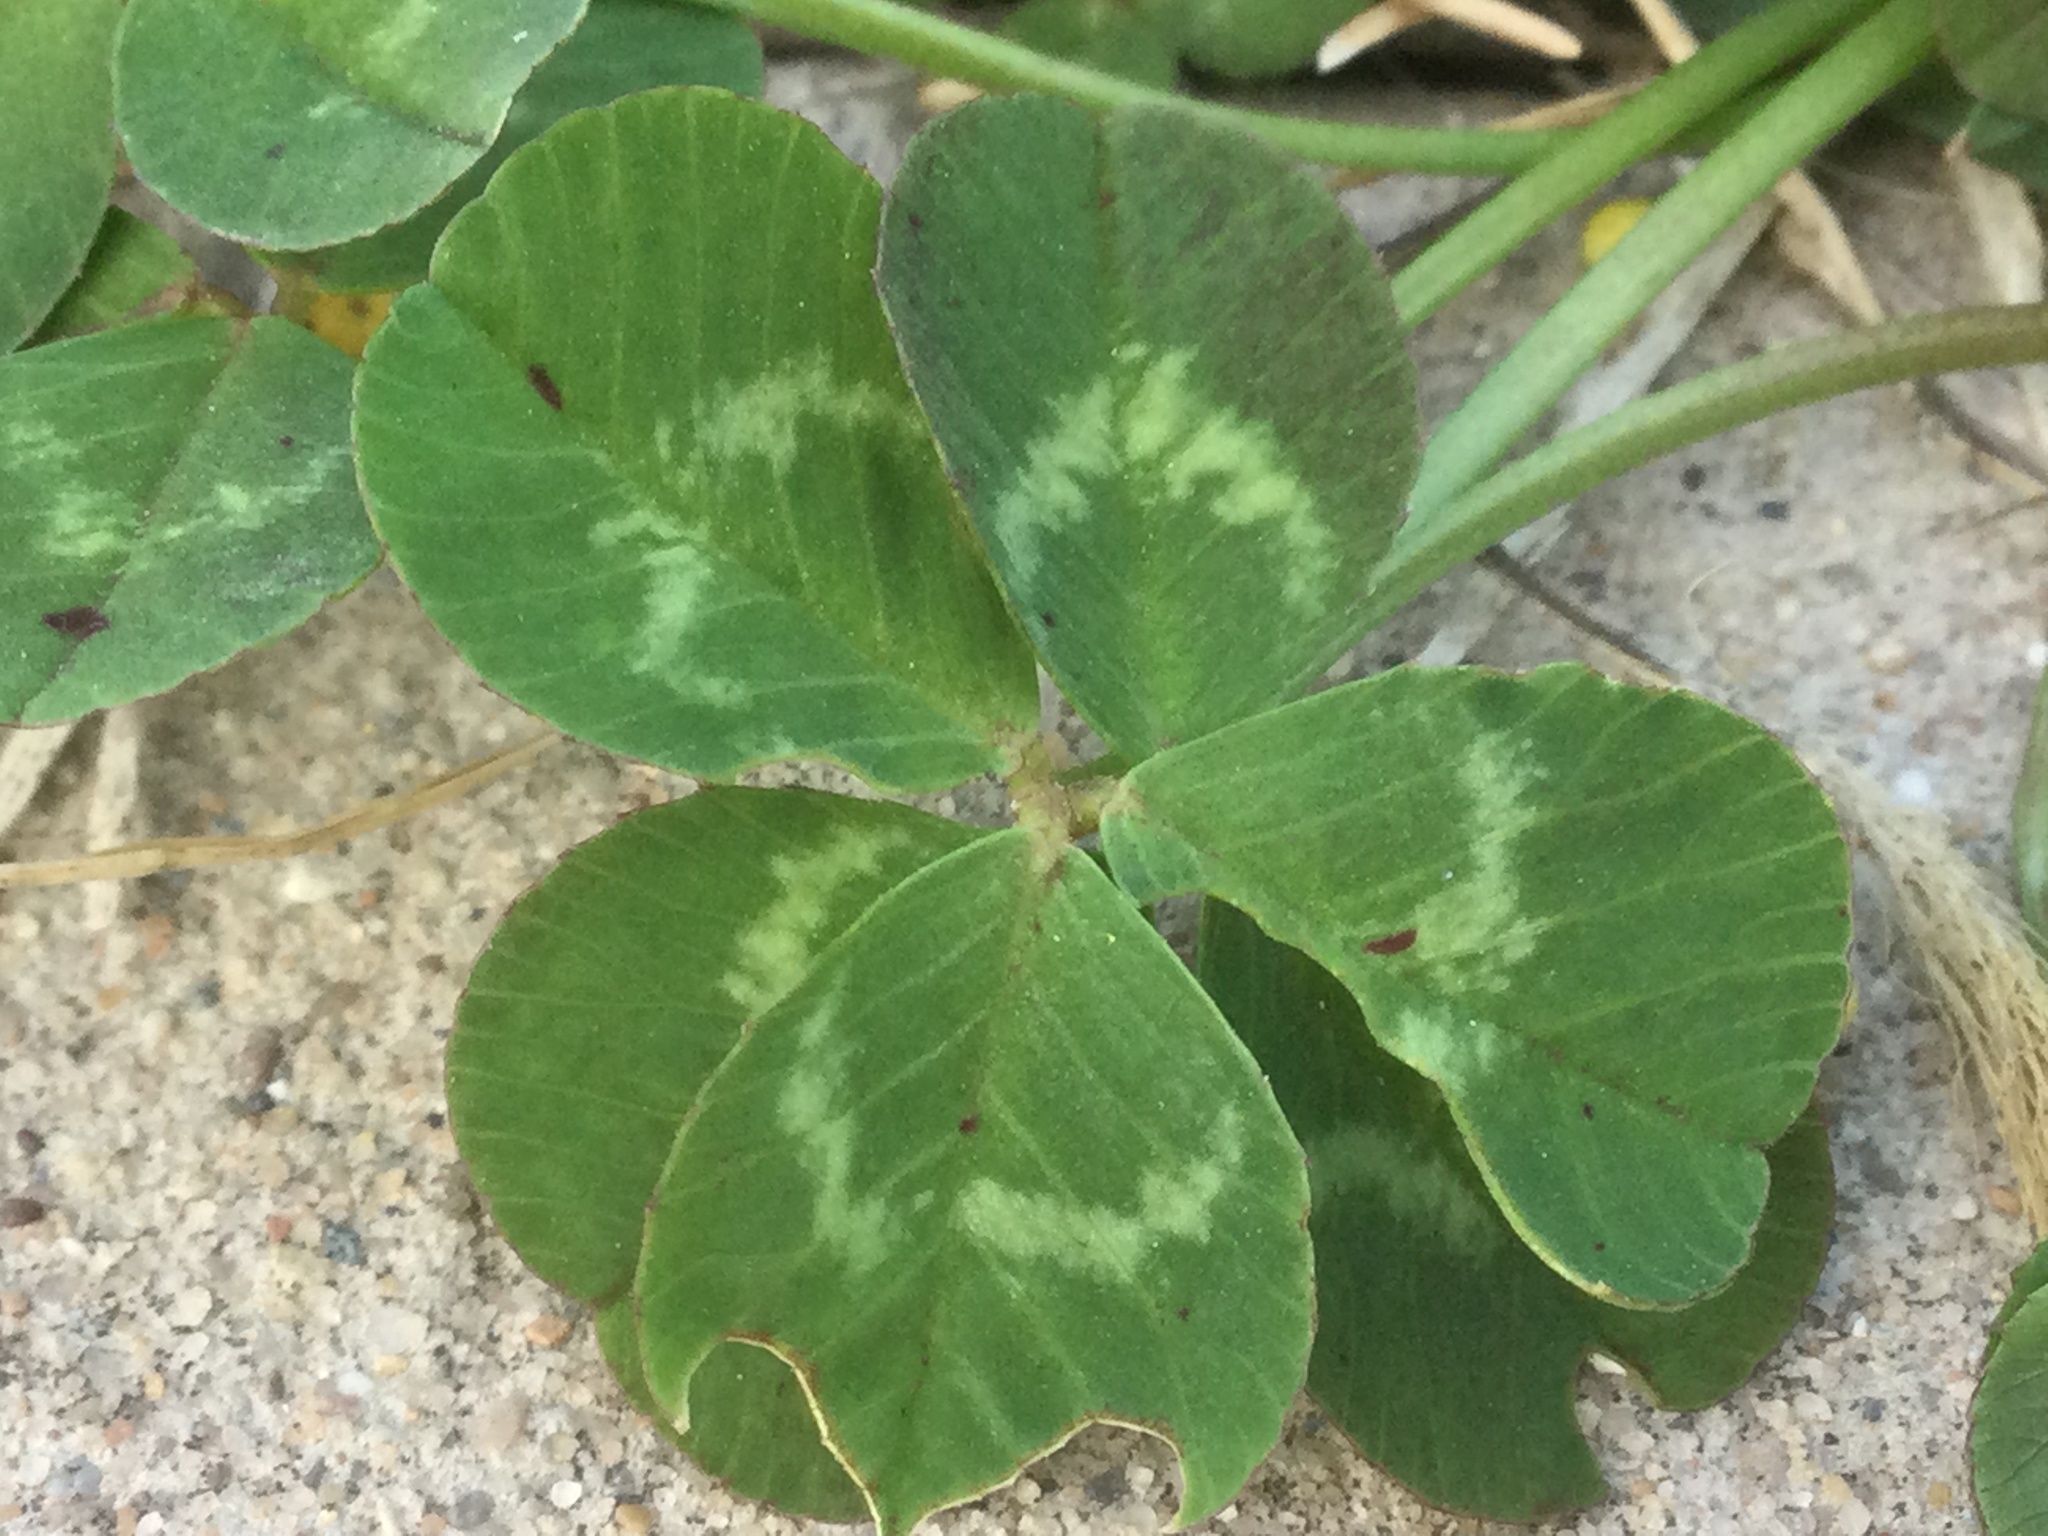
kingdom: Plantae
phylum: Tracheophyta
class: Magnoliopsida
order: Fabales
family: Fabaceae
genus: Trifolium
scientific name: Trifolium repens
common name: White clover
